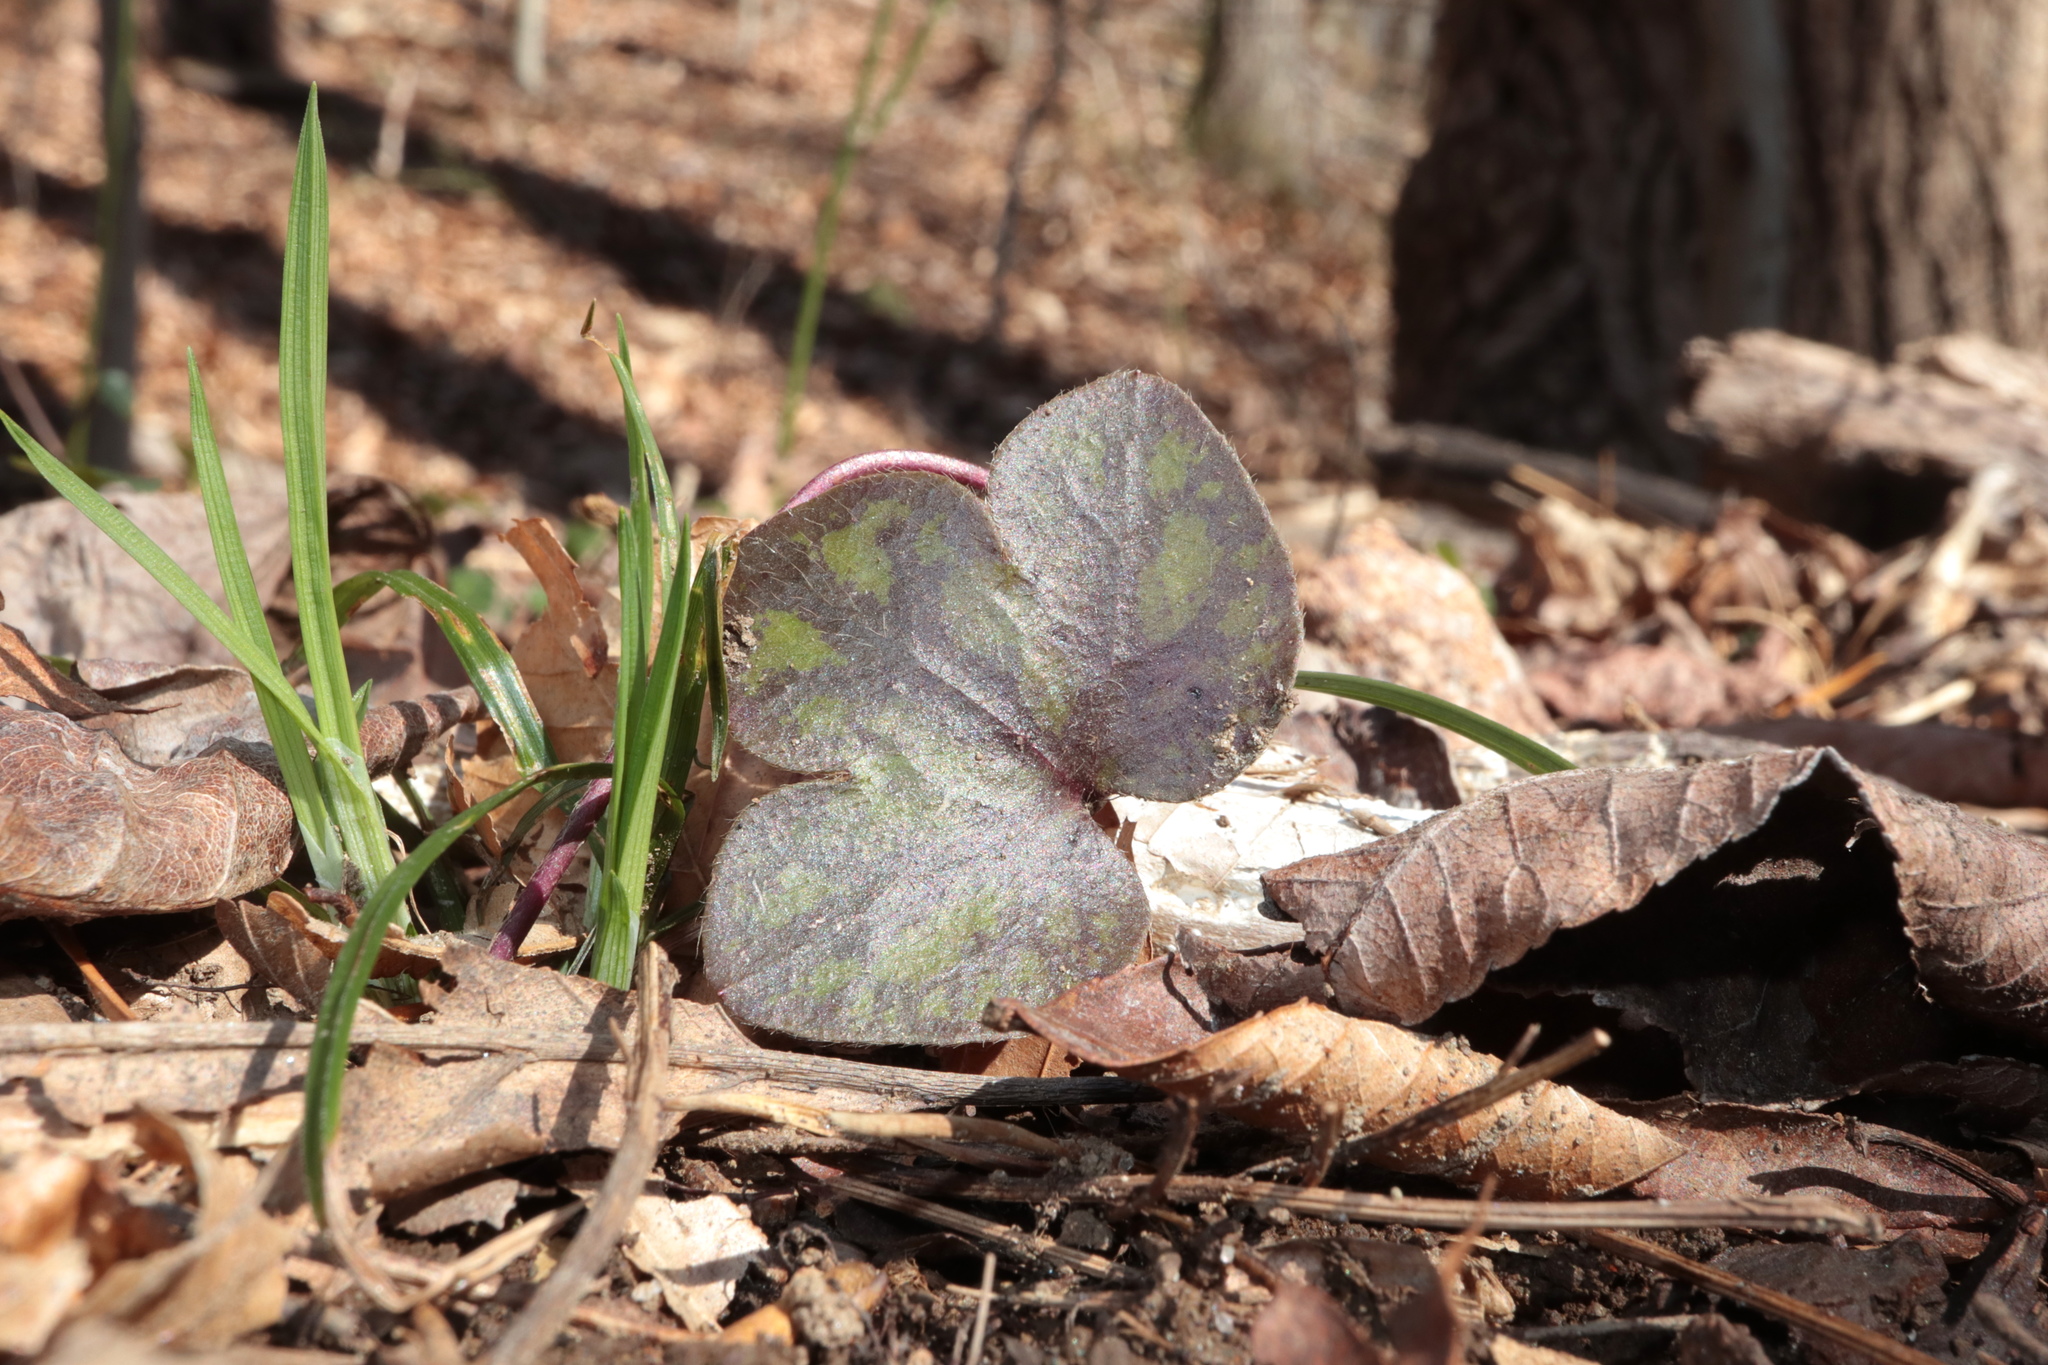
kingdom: Plantae
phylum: Tracheophyta
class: Magnoliopsida
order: Ranunculales
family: Ranunculaceae
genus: Hepatica
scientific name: Hepatica americana
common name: American hepatica
